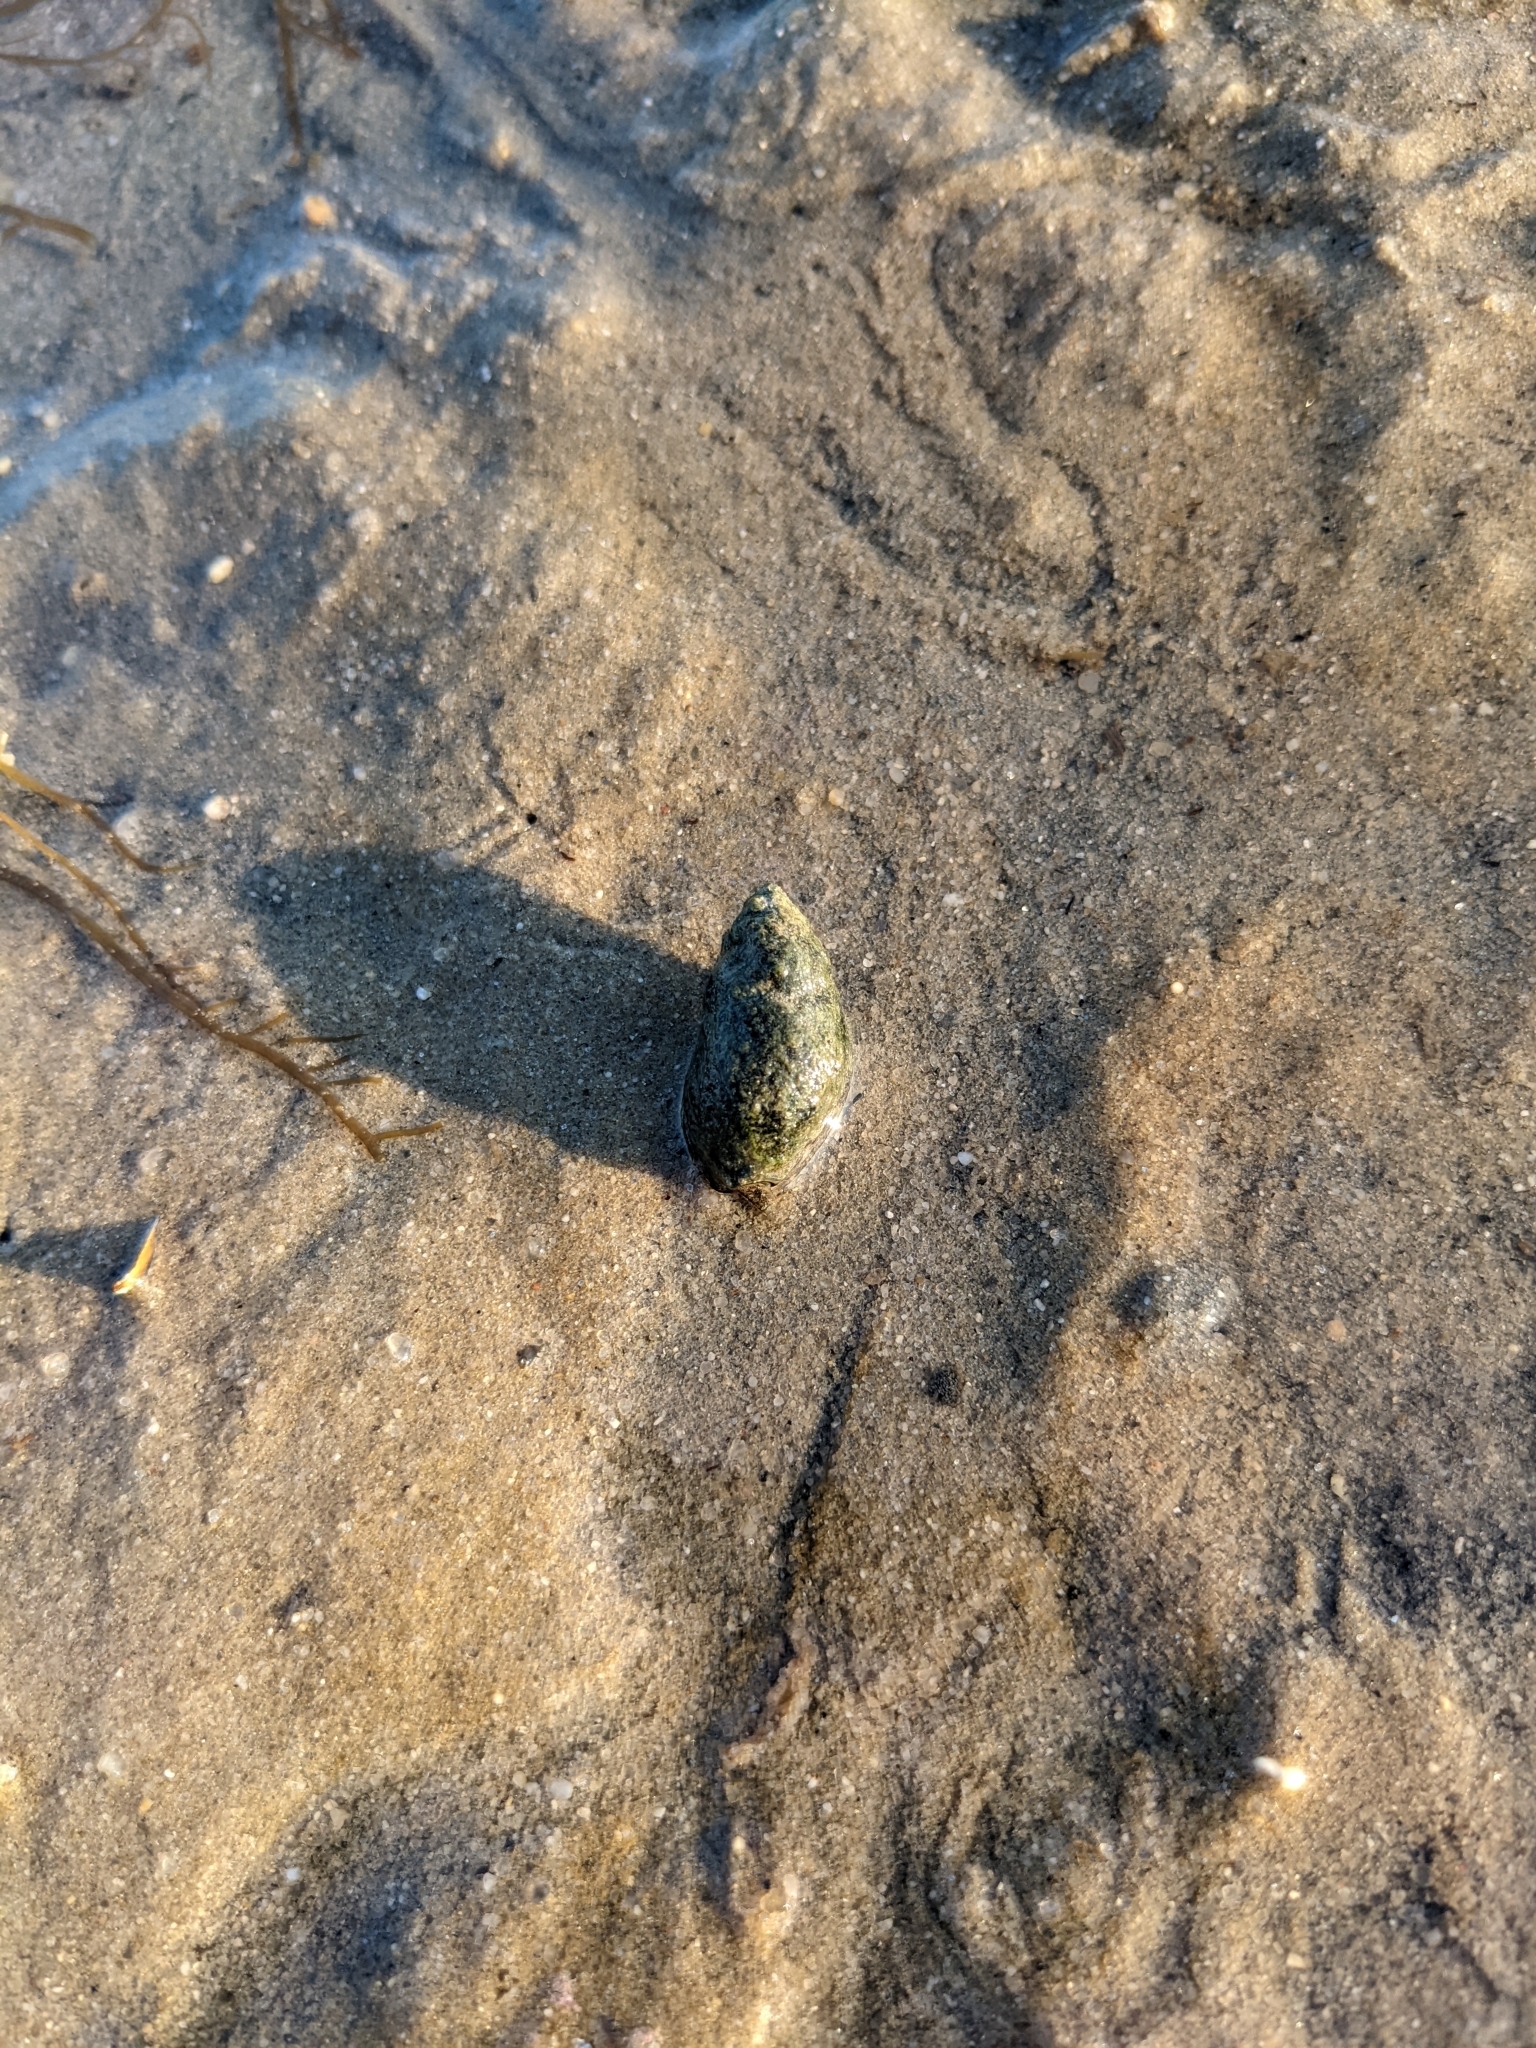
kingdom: Animalia
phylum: Mollusca
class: Gastropoda
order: Neogastropoda
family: Nassariidae
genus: Ilyanassa
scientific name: Ilyanassa obsoleta
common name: Eastern mudsnail
